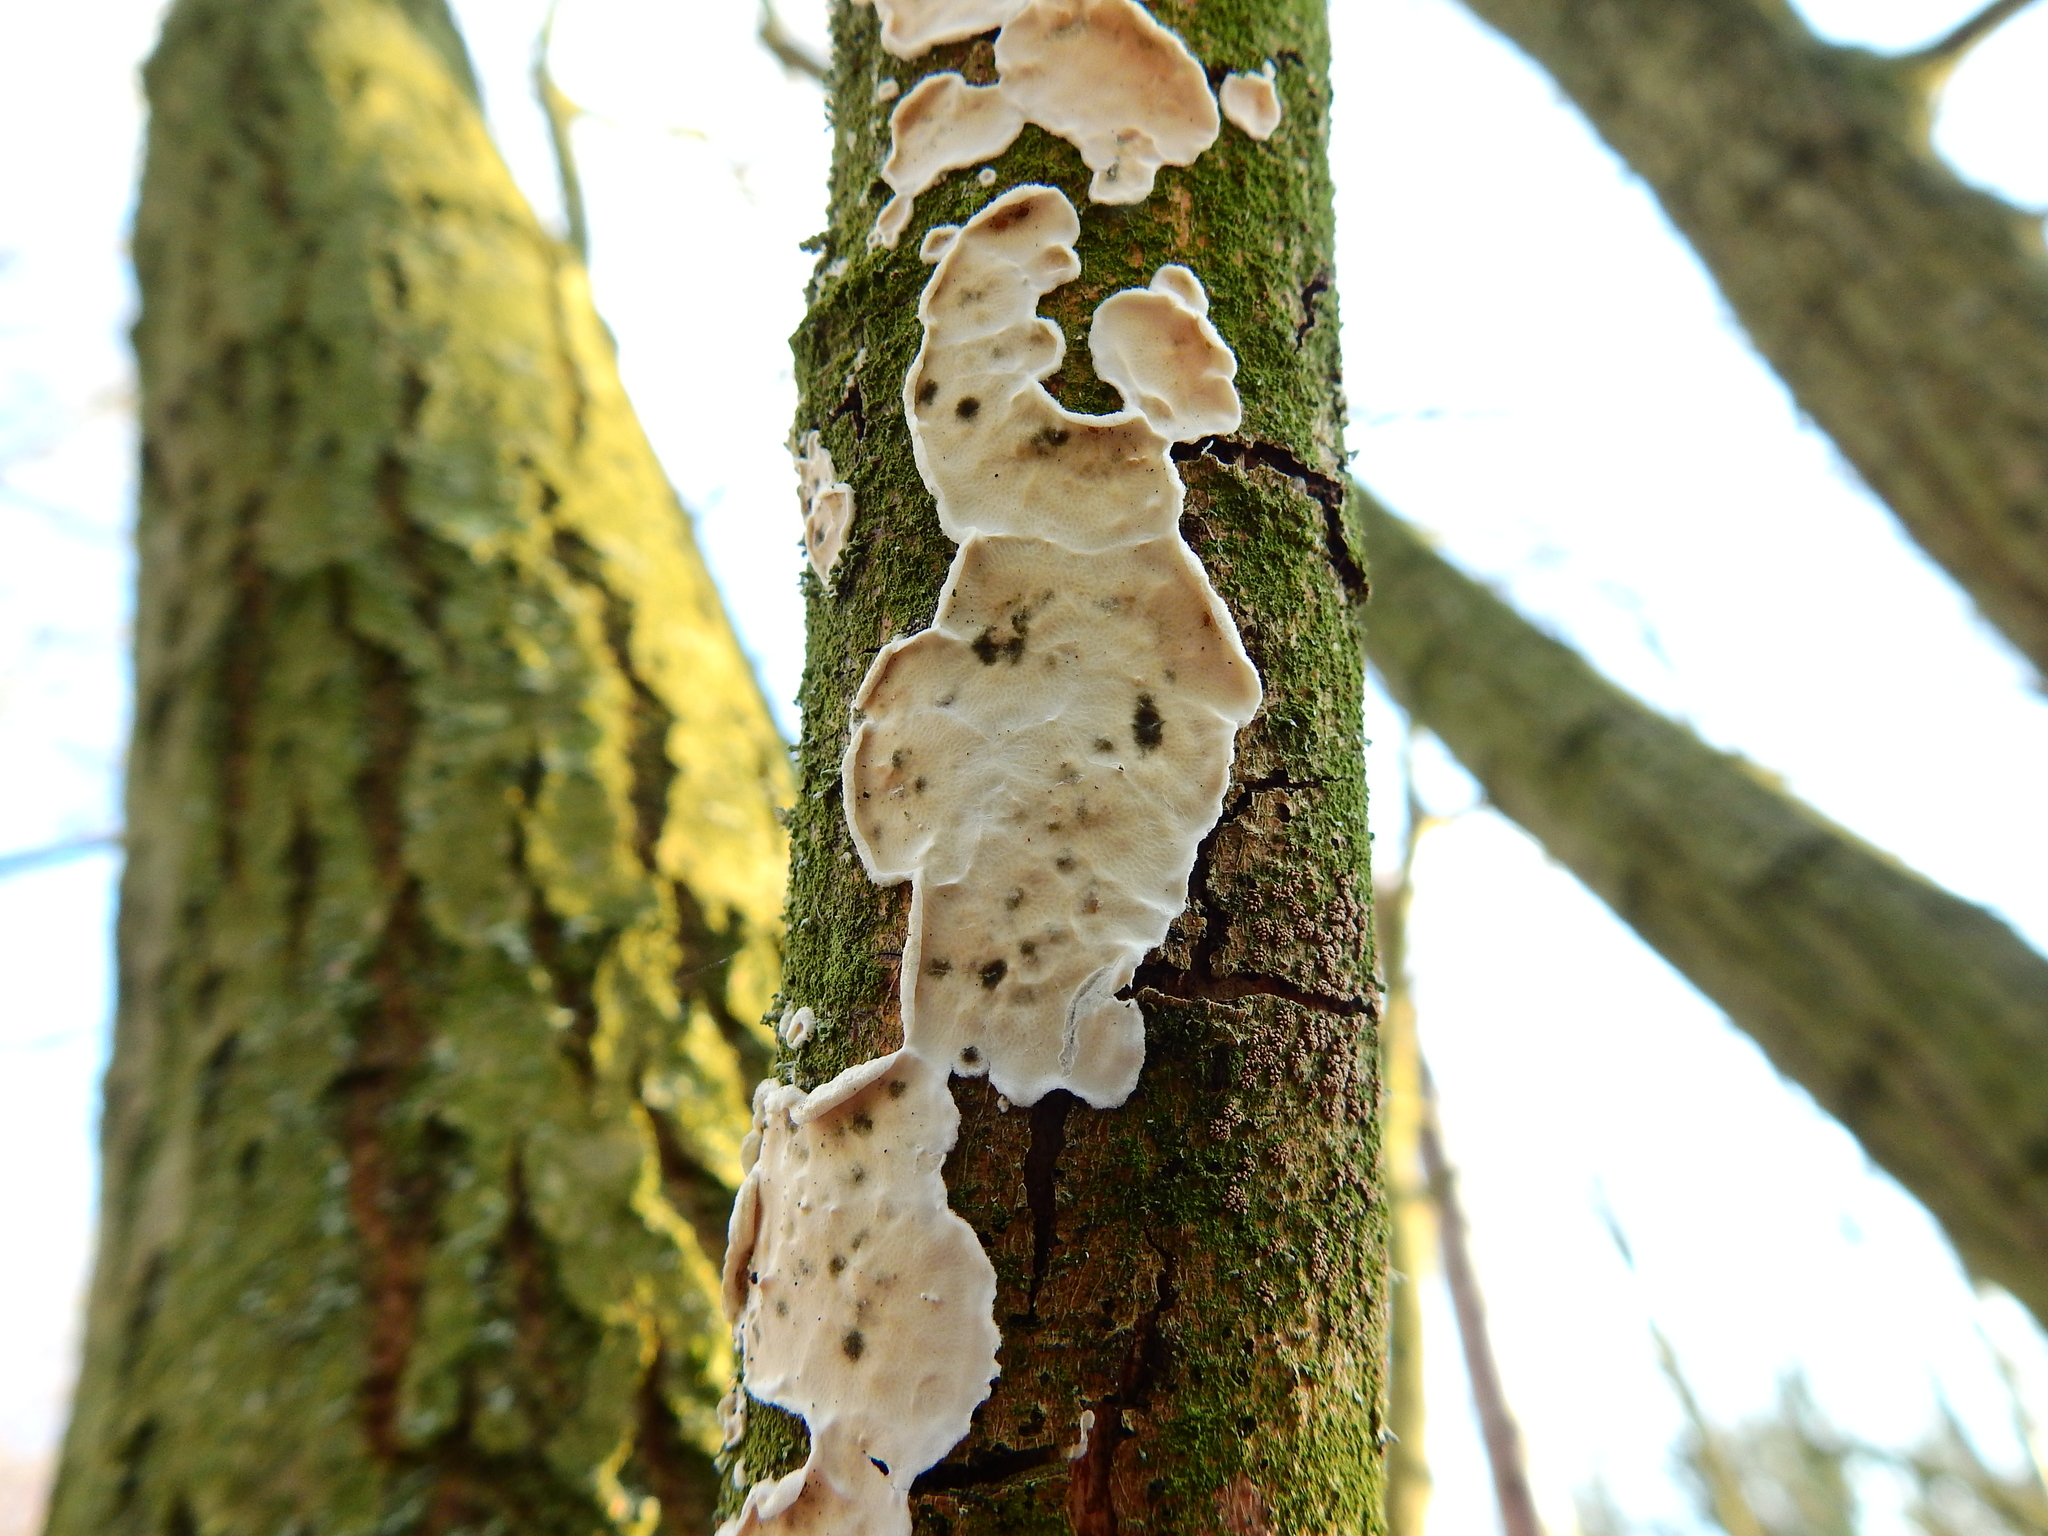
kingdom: Fungi
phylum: Basidiomycota
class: Agaricomycetes
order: Polyporales
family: Irpicaceae
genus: Byssomerulius
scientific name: Byssomerulius corium
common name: Netted crust
